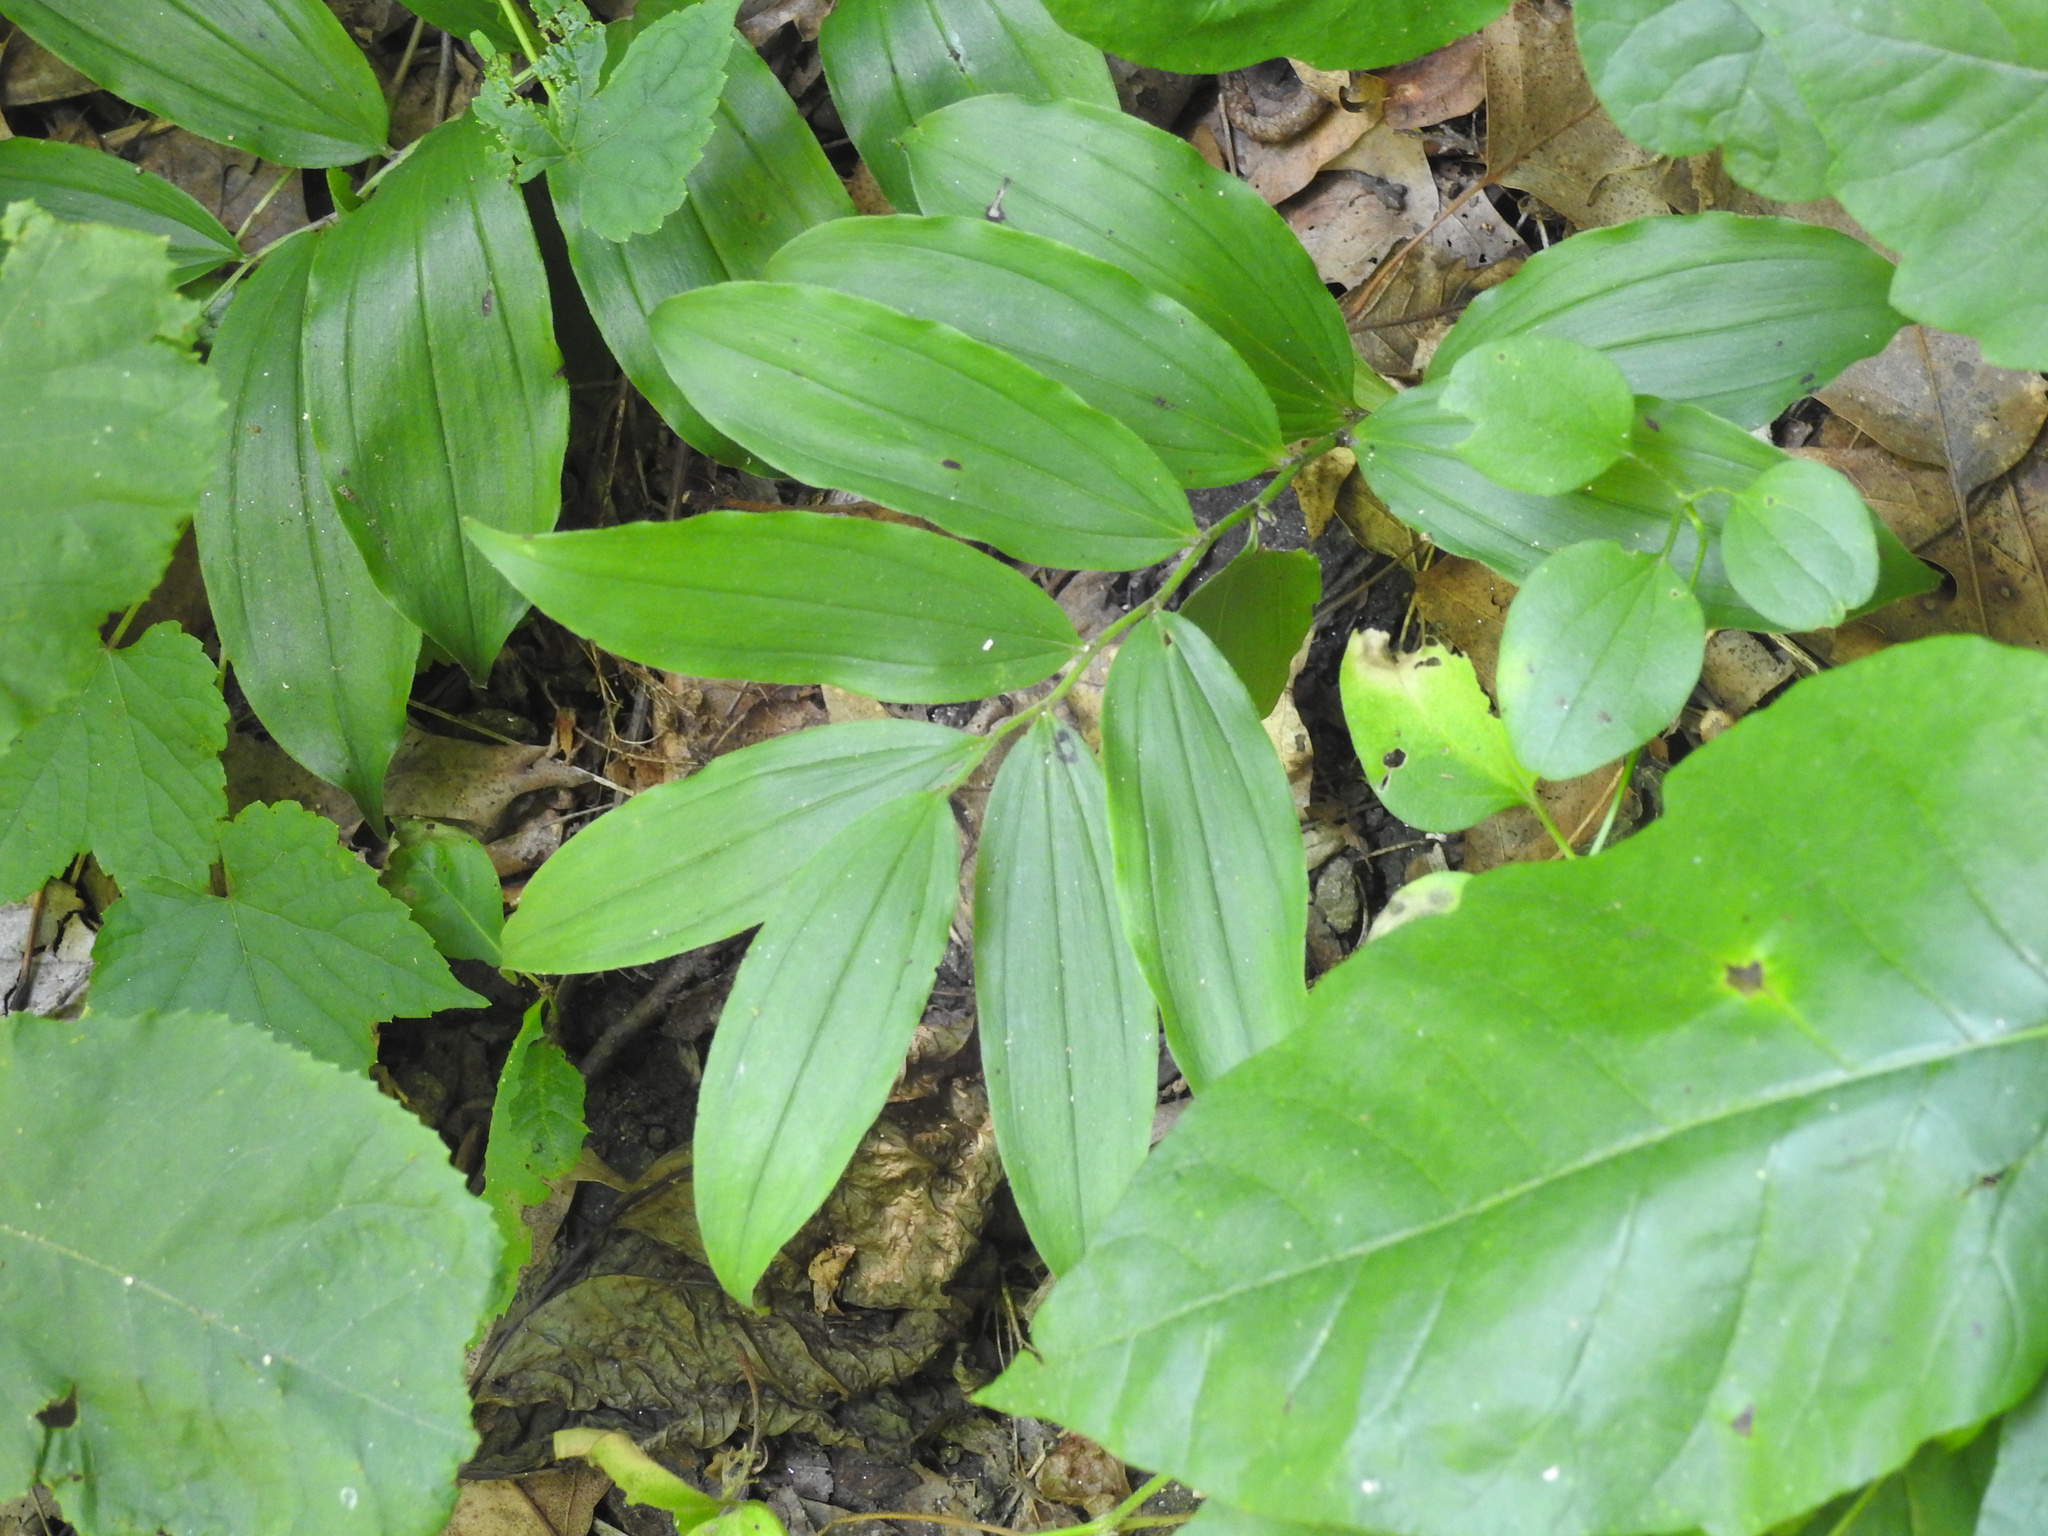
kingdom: Plantae
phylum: Tracheophyta
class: Liliopsida
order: Asparagales
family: Asparagaceae
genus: Maianthemum
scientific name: Maianthemum racemosum
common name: False spikenard
